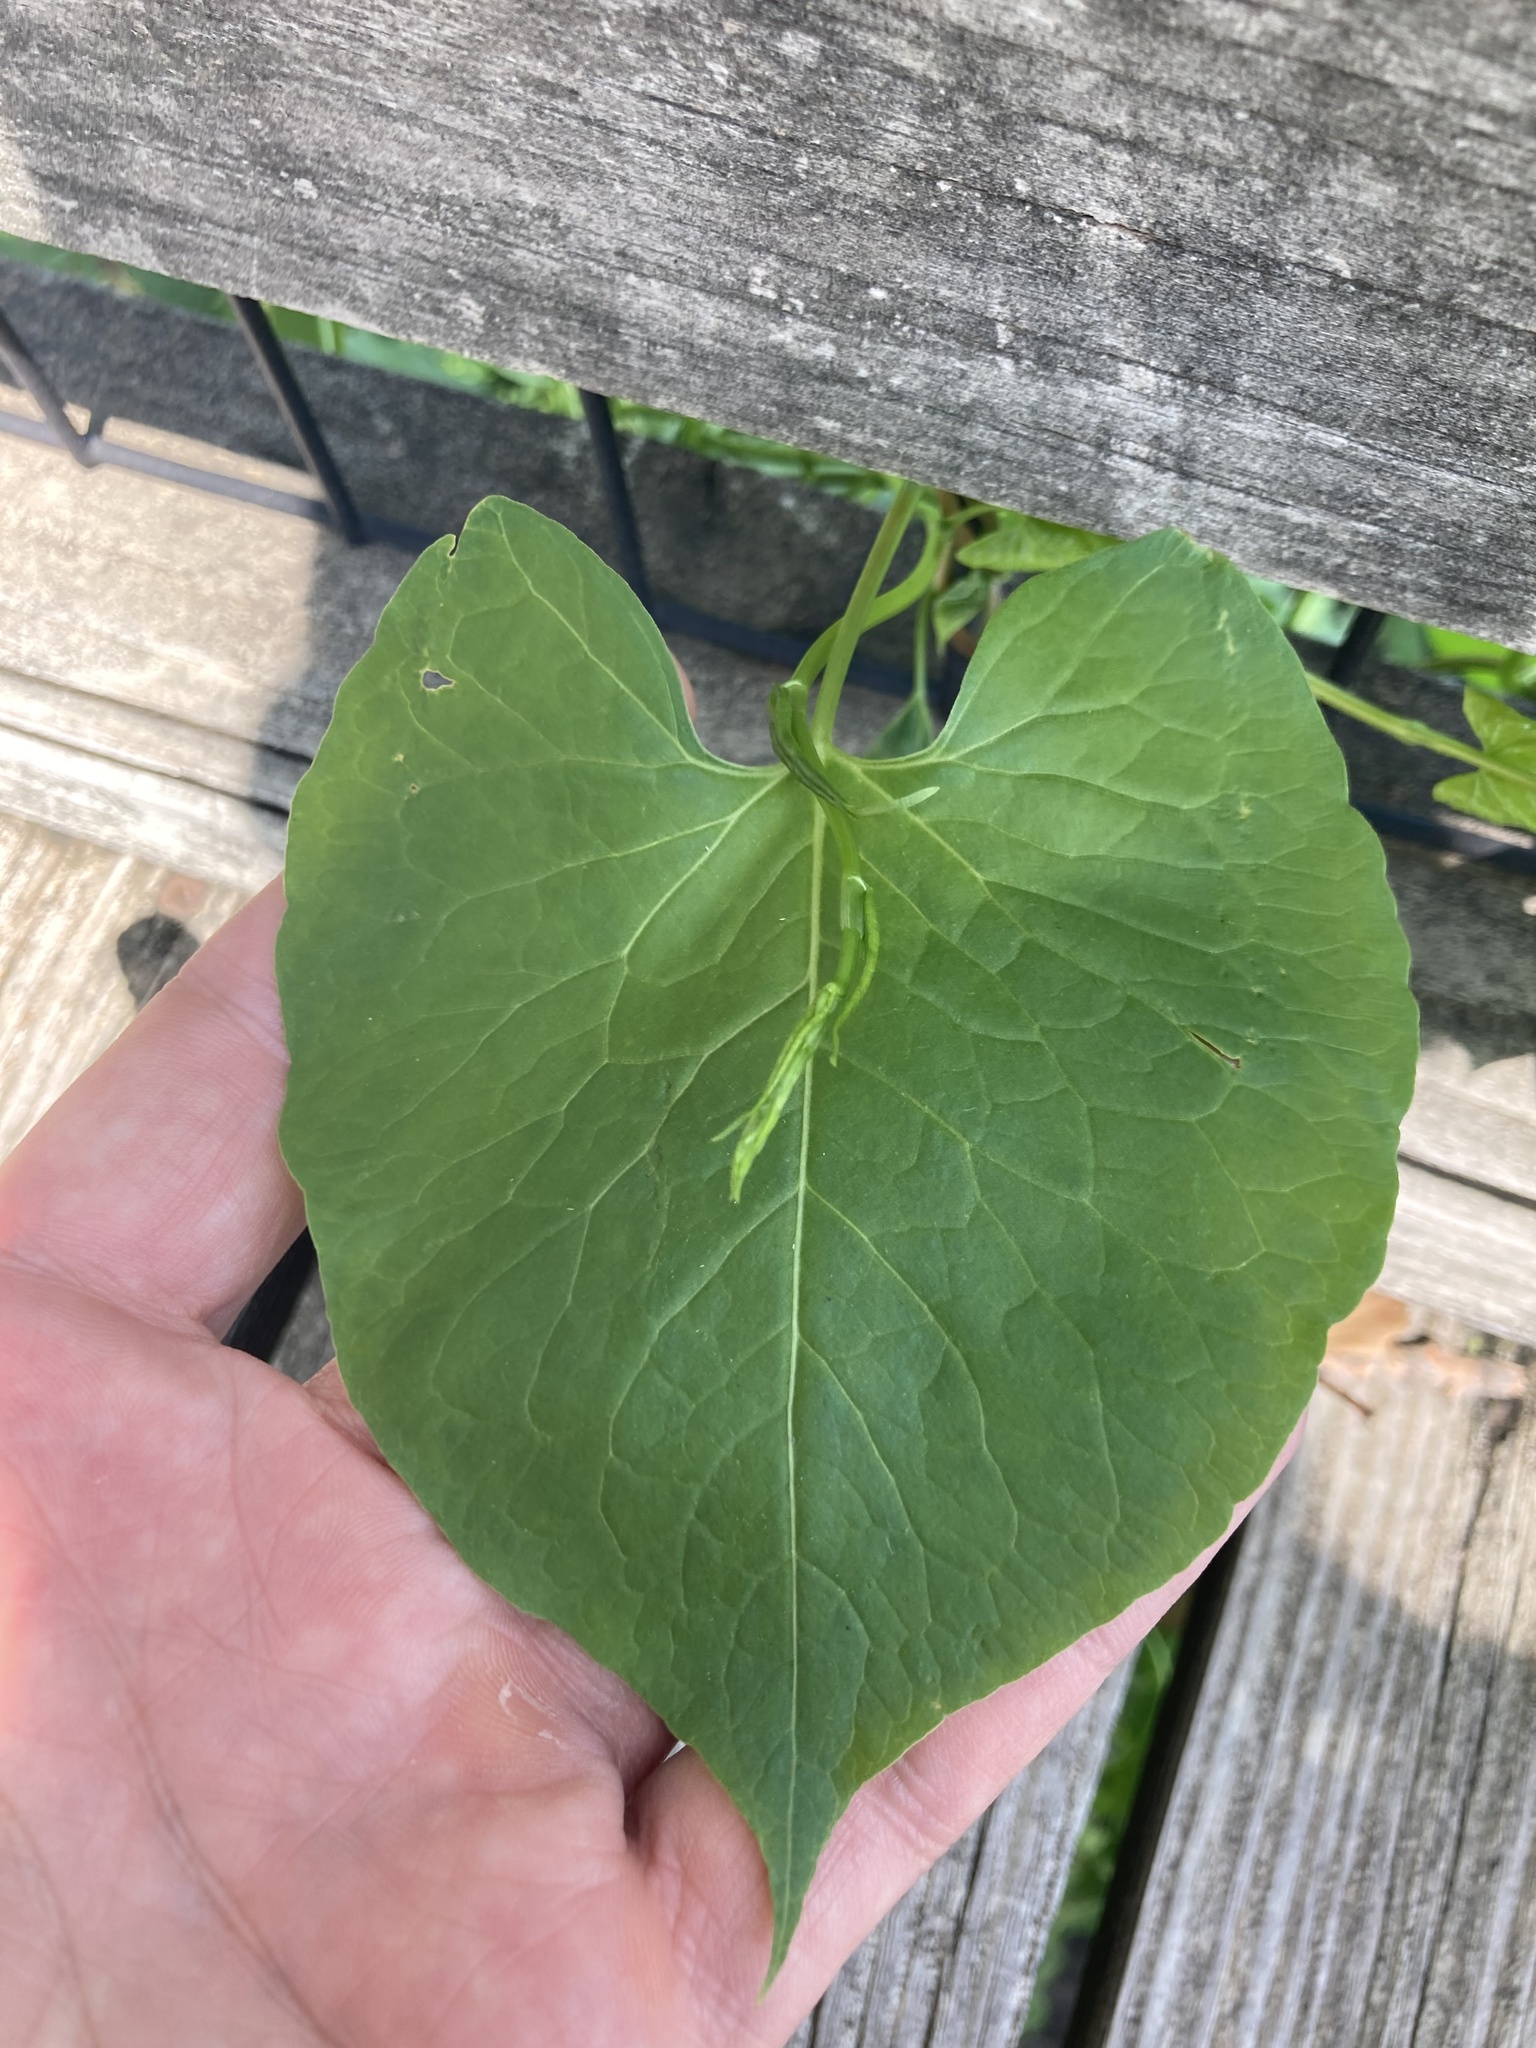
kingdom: Plantae
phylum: Tracheophyta
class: Magnoliopsida
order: Caryophyllales
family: Polygonaceae
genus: Fallopia
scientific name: Fallopia
